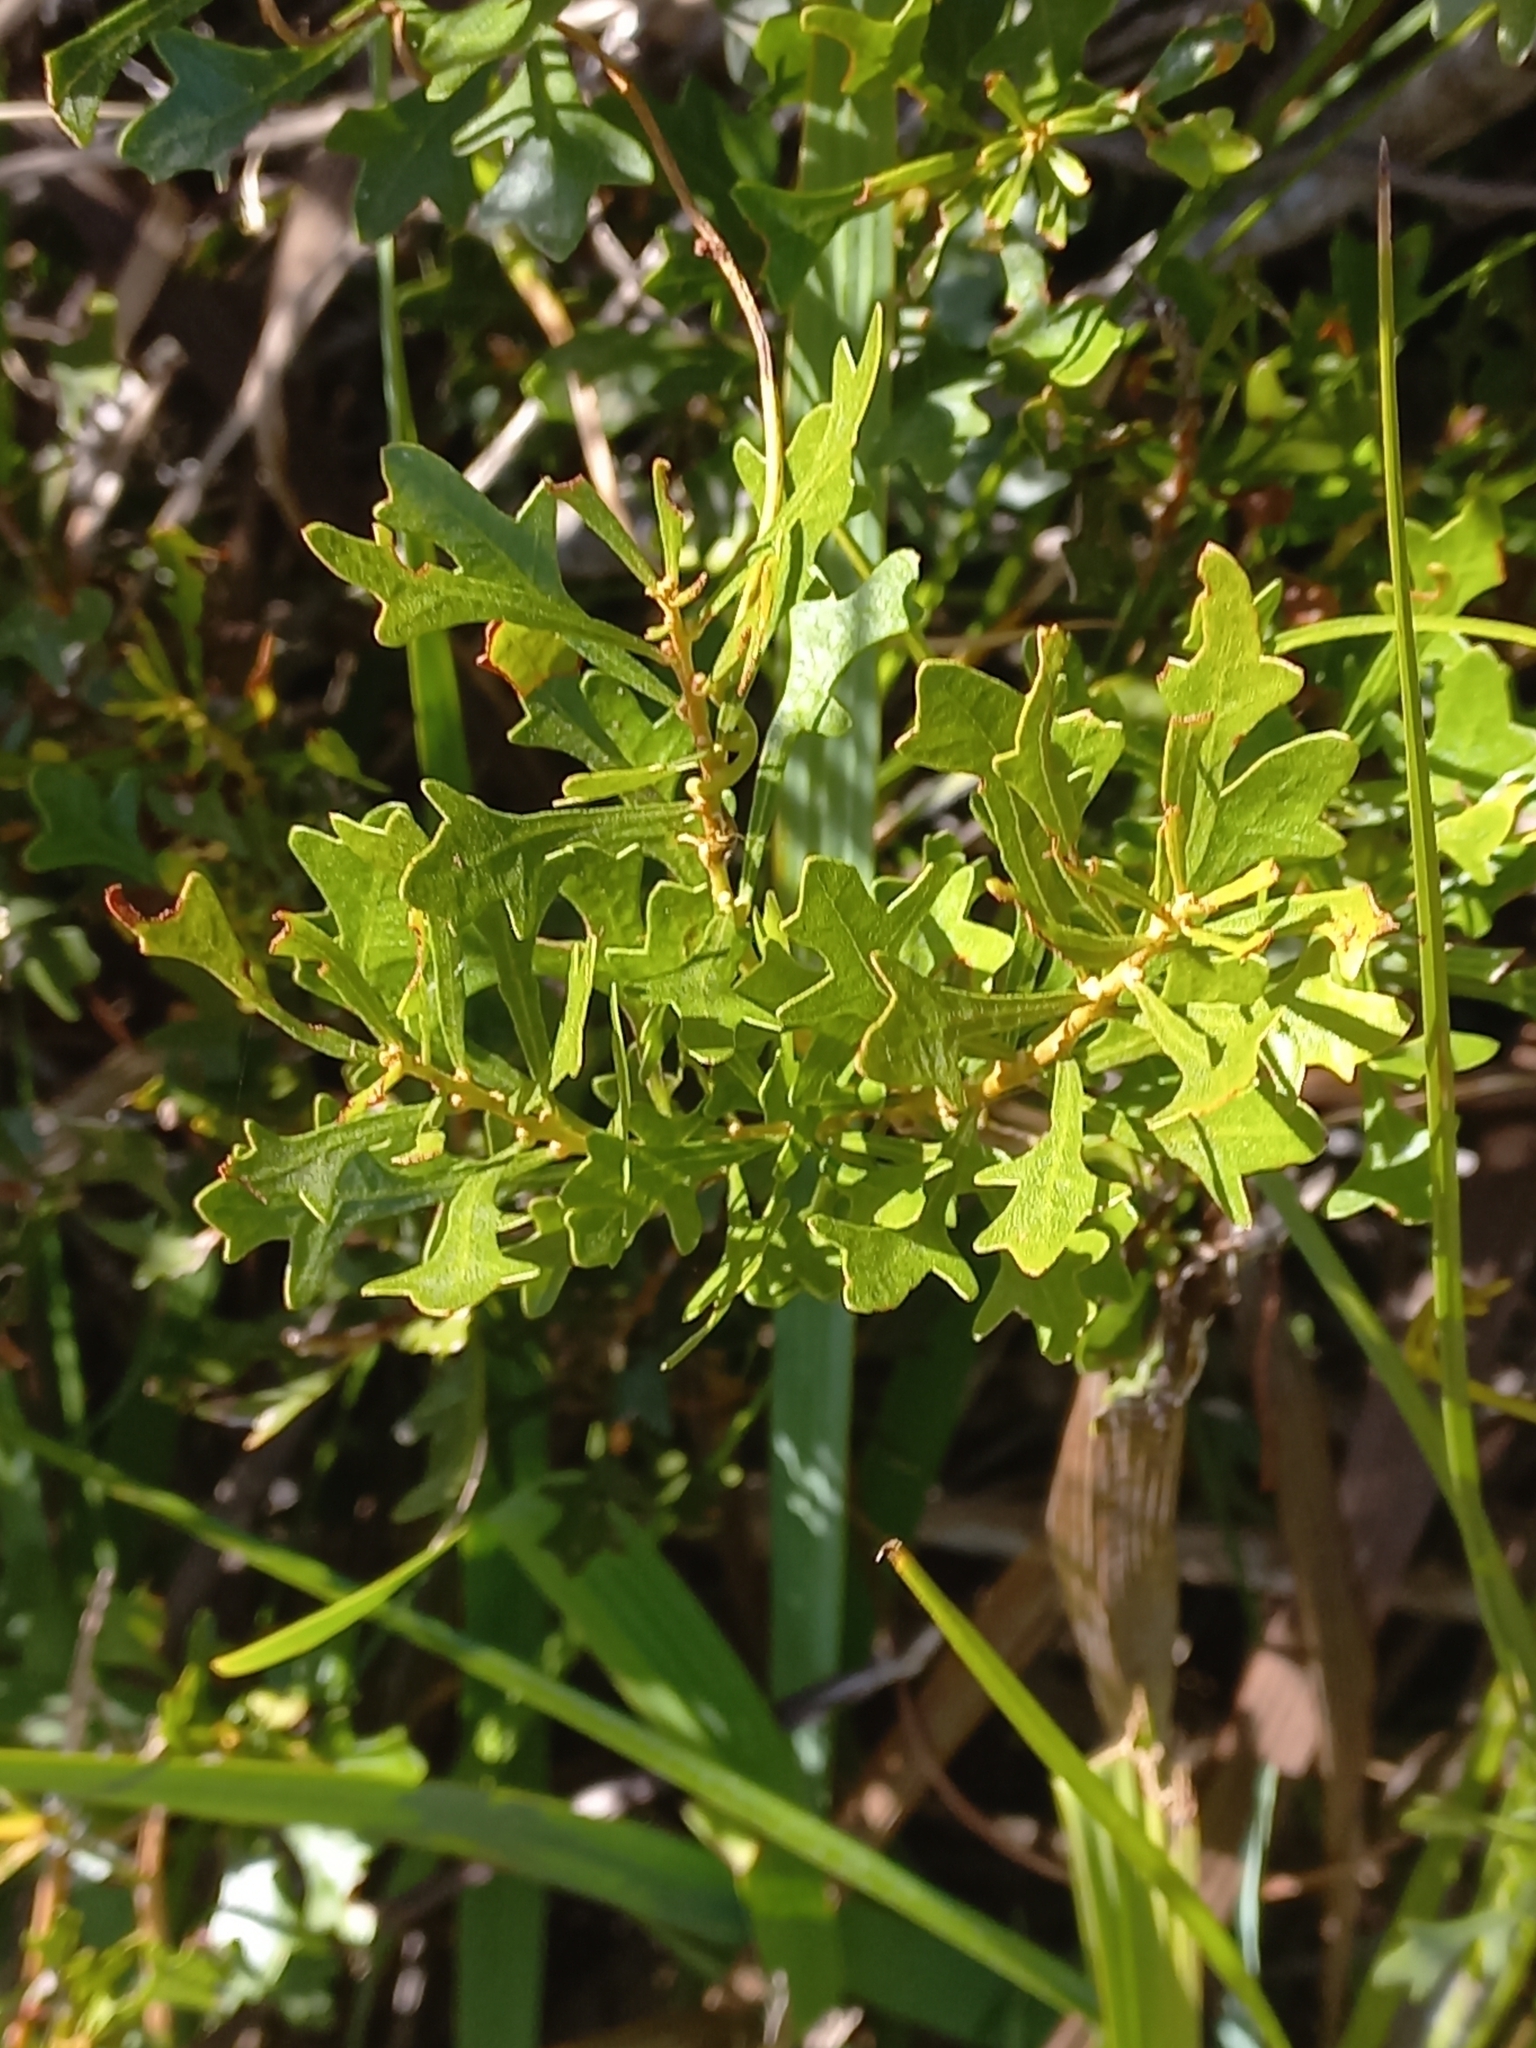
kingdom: Plantae
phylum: Tracheophyta
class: Magnoliopsida
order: Fagales
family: Myricaceae
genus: Morella
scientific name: Morella quercifolia
